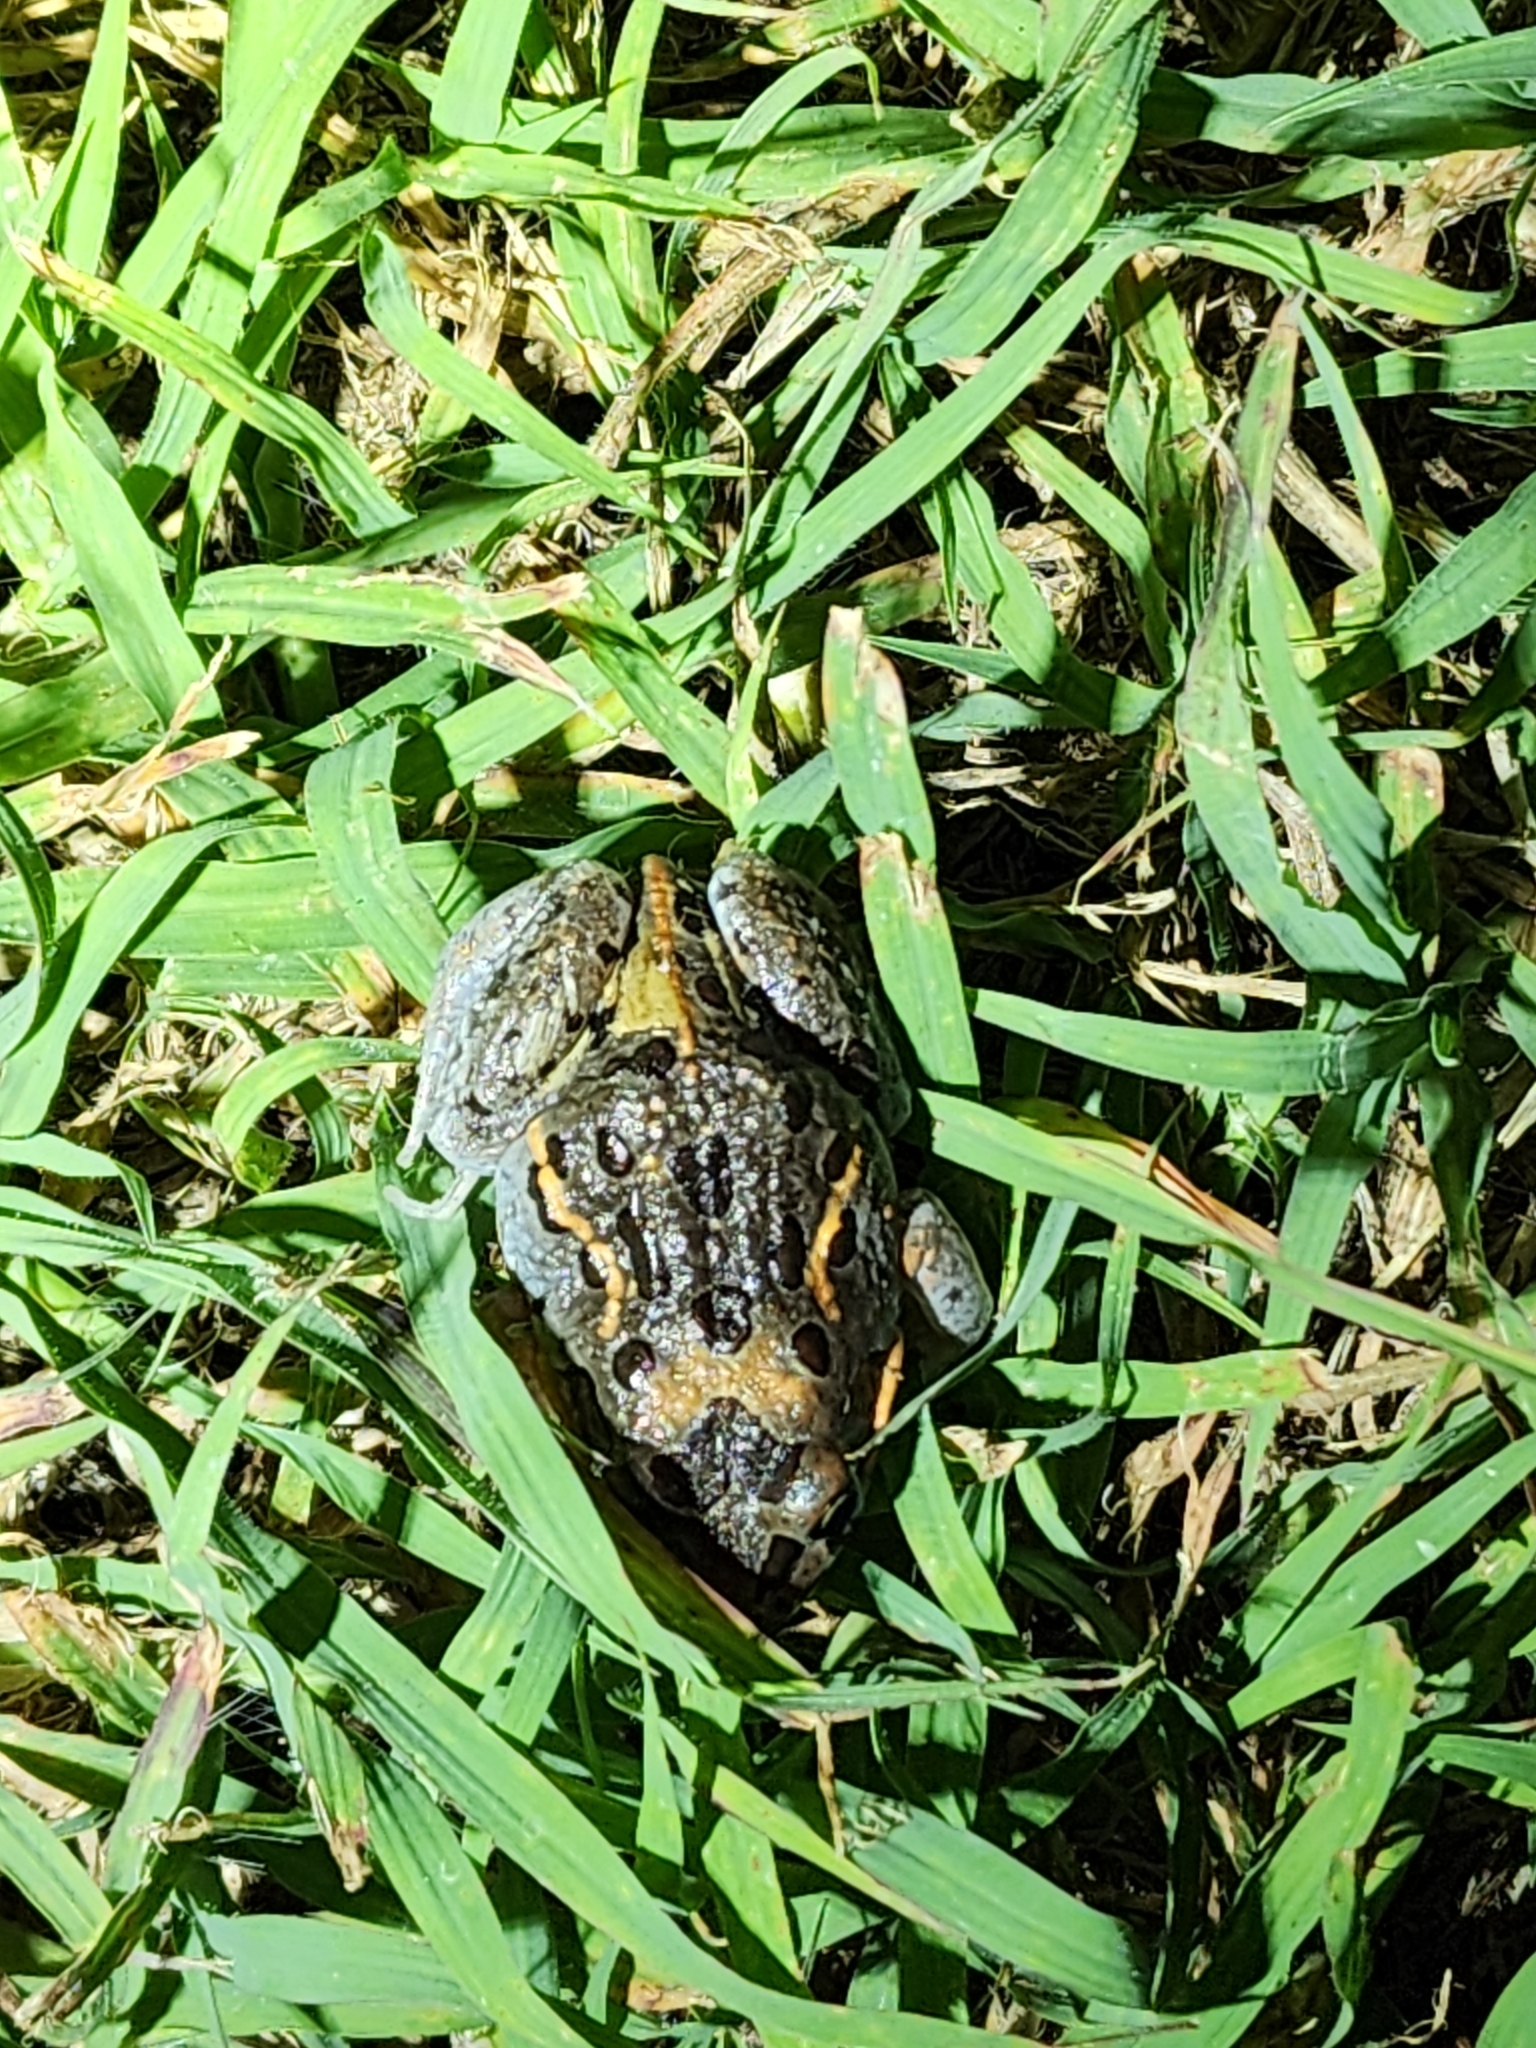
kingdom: Animalia
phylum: Chordata
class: Amphibia
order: Anura
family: Limnodynastidae
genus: Limnodynastes
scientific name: Limnodynastes salmini
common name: Salmon-striped frog
